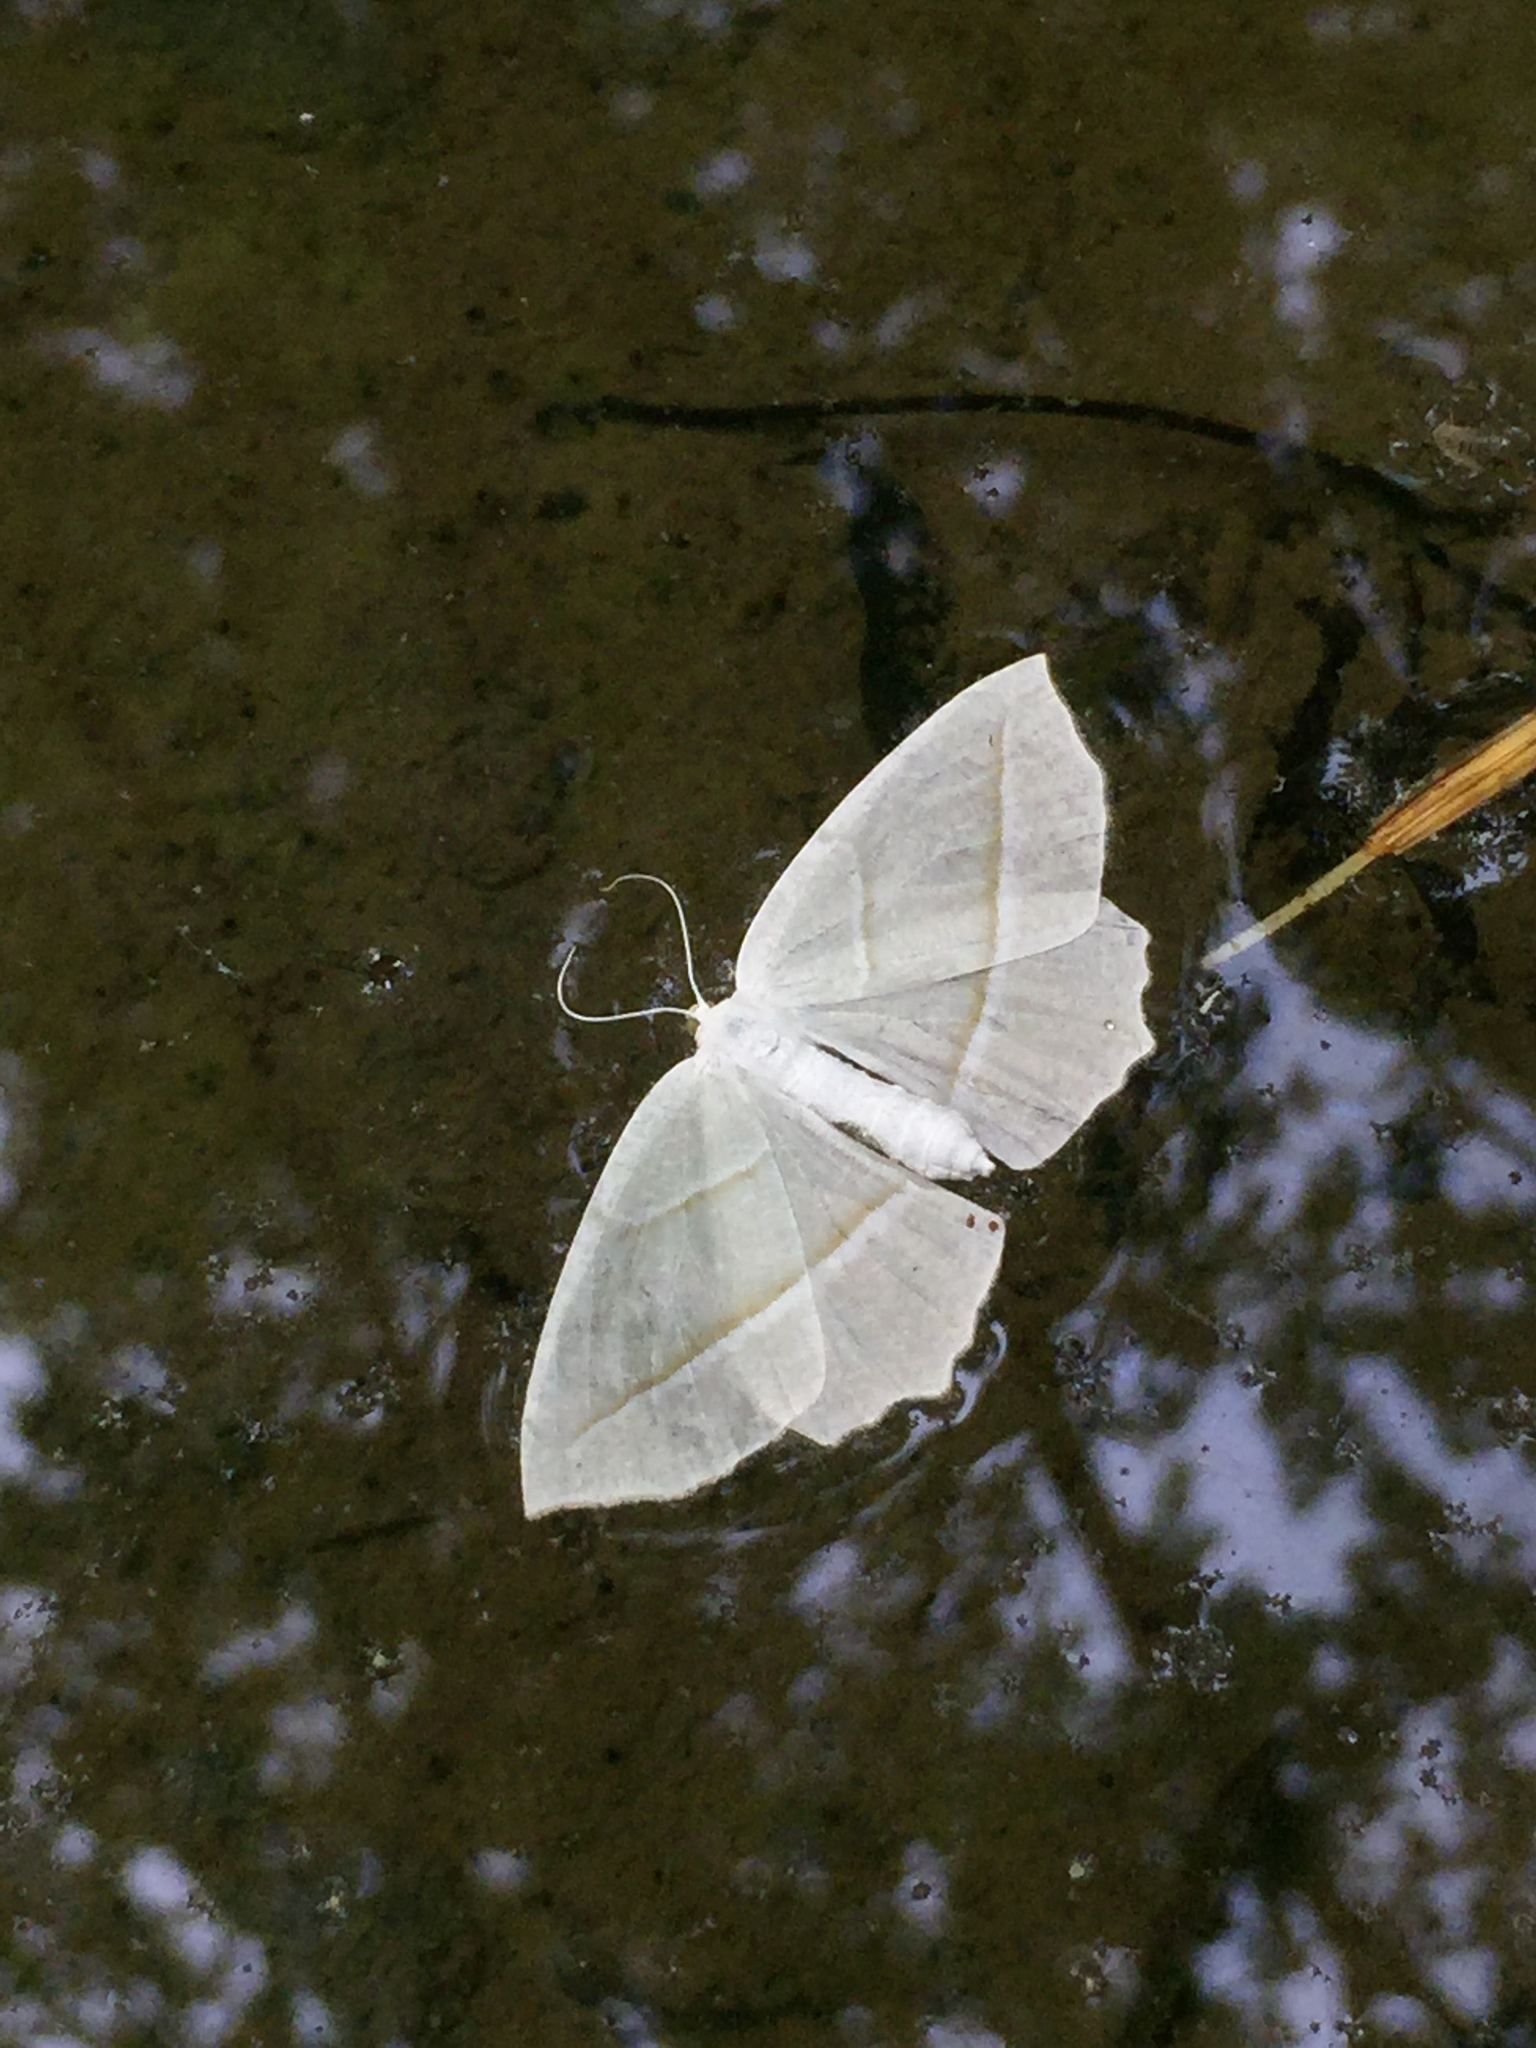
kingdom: Animalia
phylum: Arthropoda
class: Insecta
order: Lepidoptera
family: Geometridae
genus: Campaea
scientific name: Campaea perlata
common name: Fringed looper
